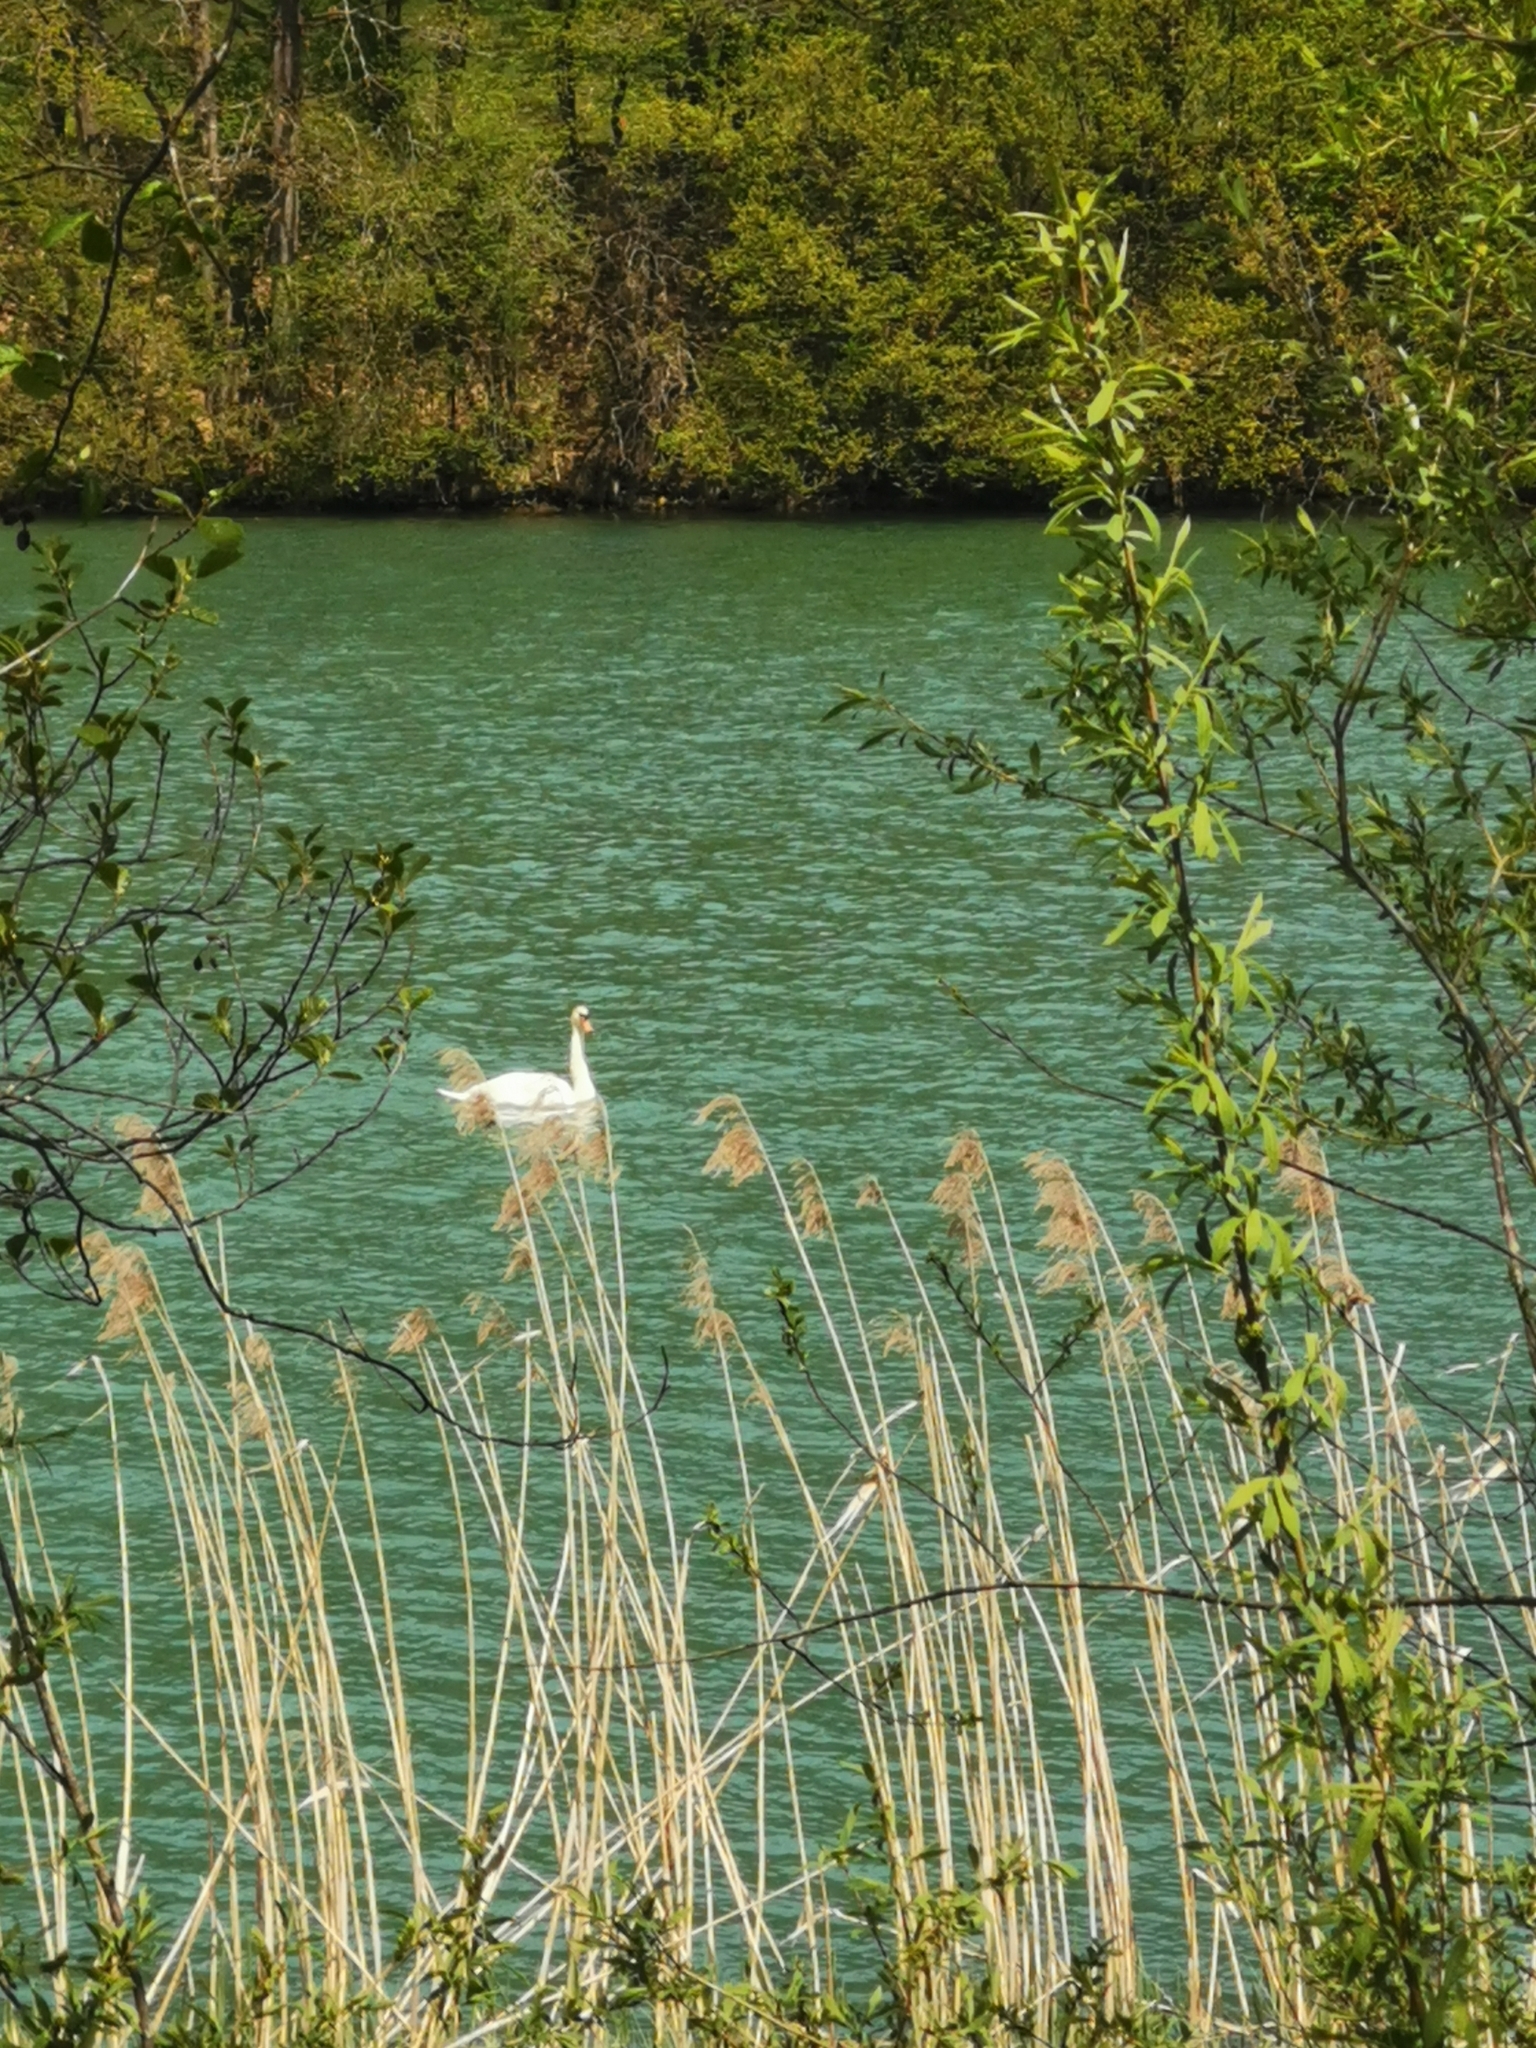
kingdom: Animalia
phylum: Chordata
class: Aves
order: Anseriformes
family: Anatidae
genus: Cygnus
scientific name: Cygnus olor
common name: Mute swan
